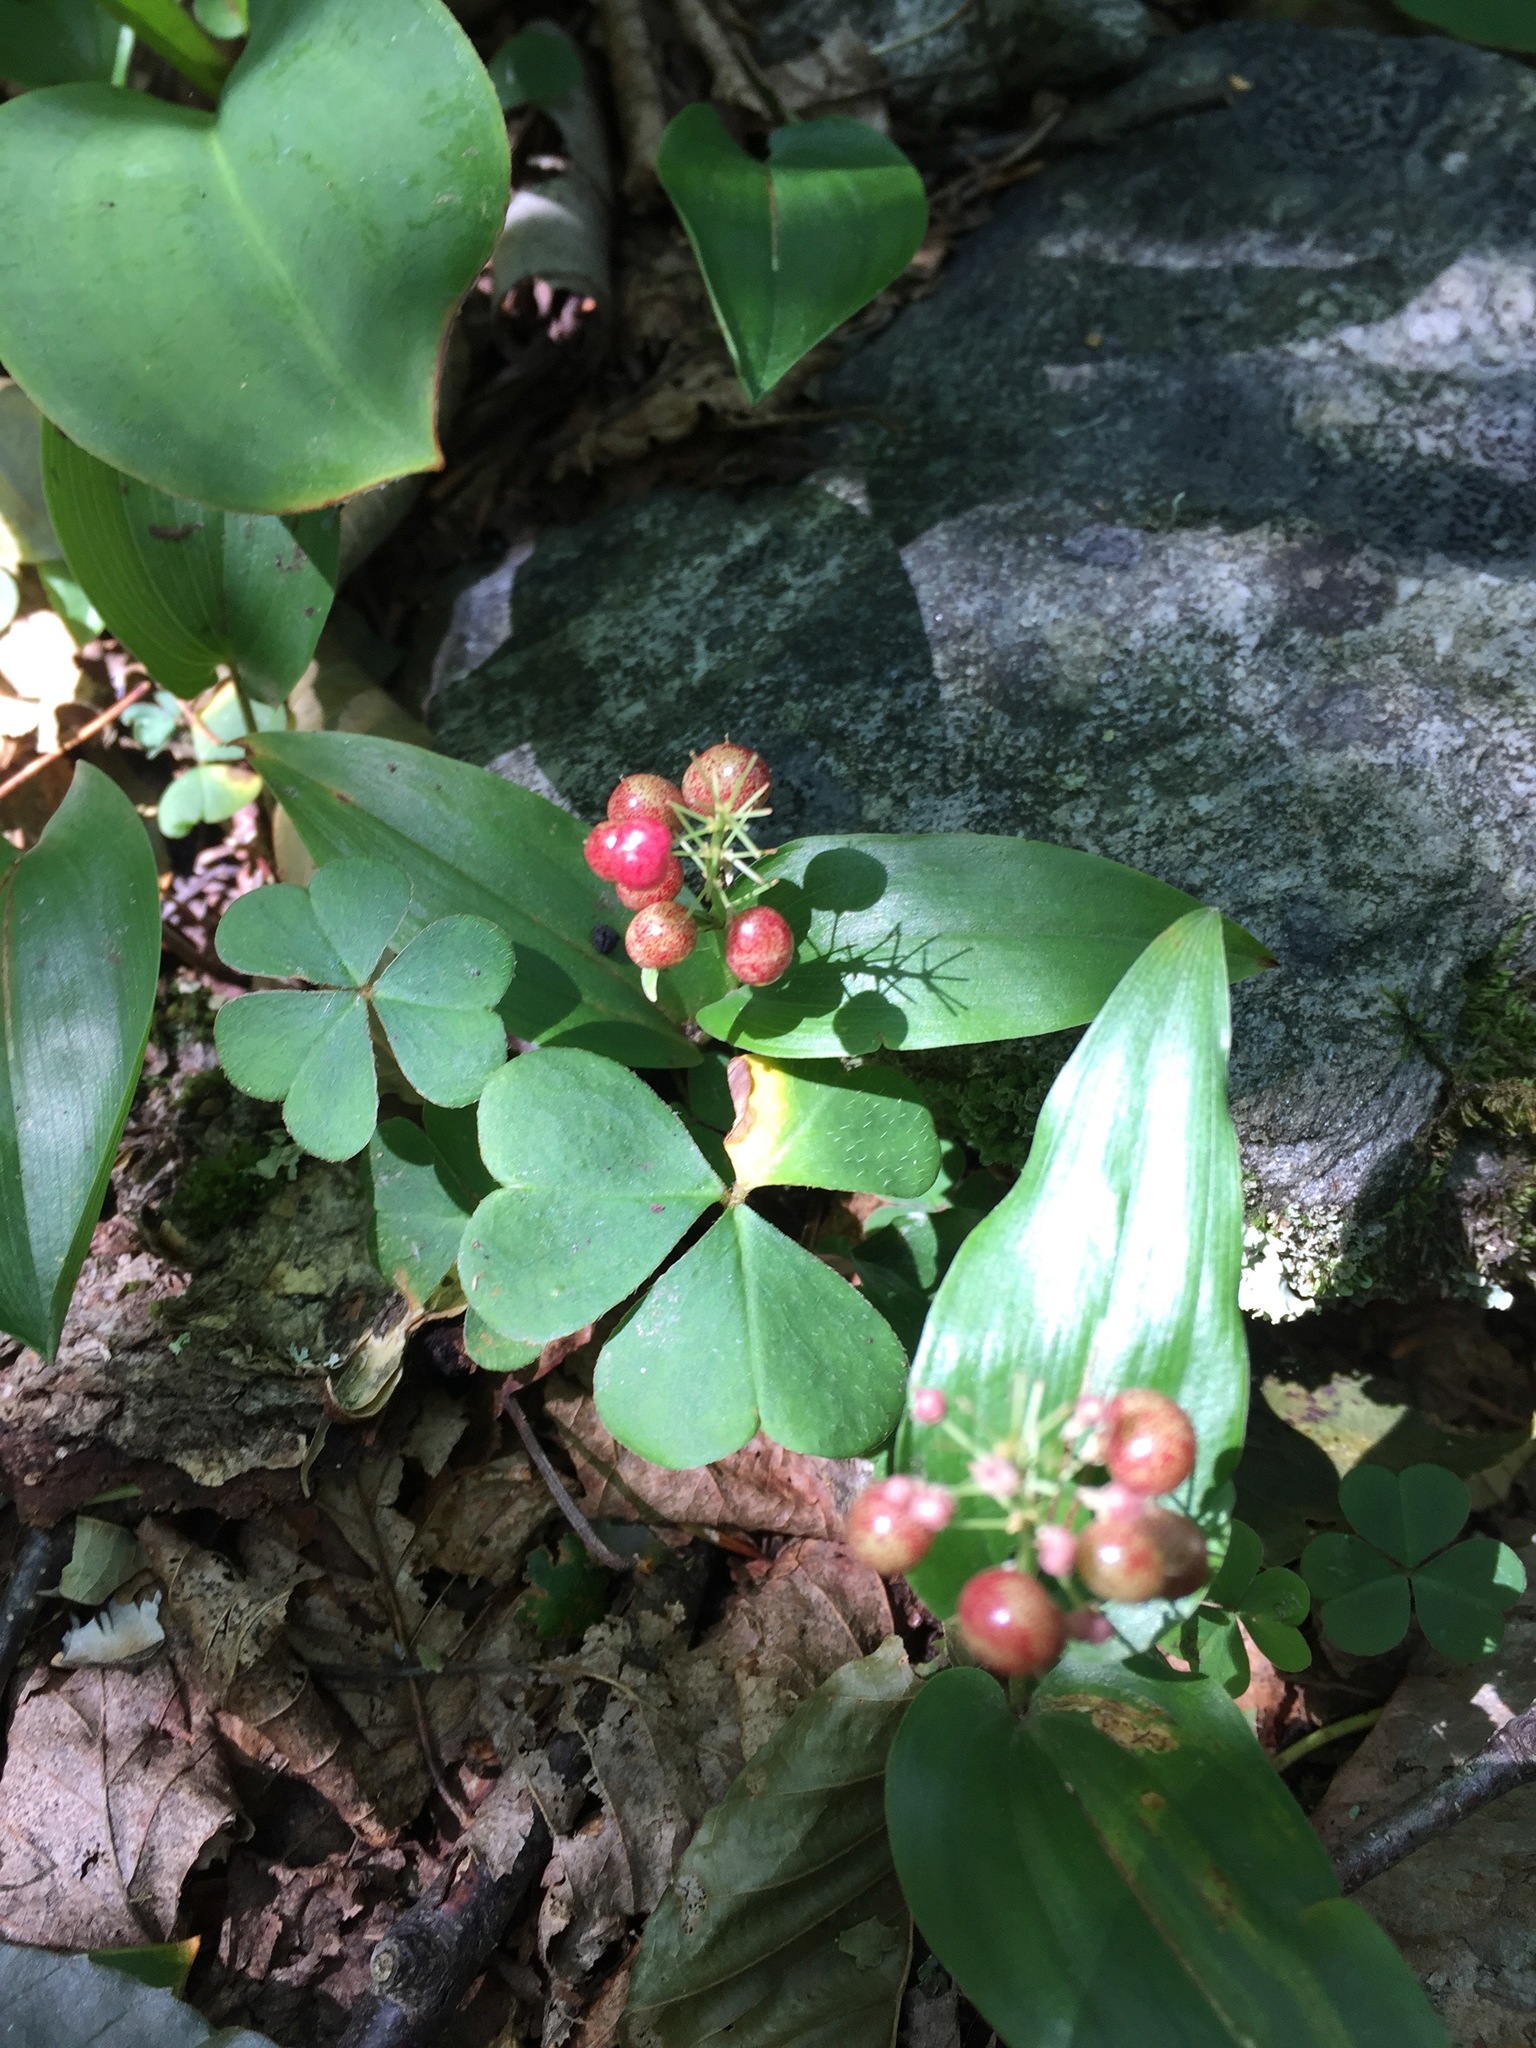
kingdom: Plantae
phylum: Tracheophyta
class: Liliopsida
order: Asparagales
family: Asparagaceae
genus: Maianthemum
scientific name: Maianthemum canadense
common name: False lily-of-the-valley
